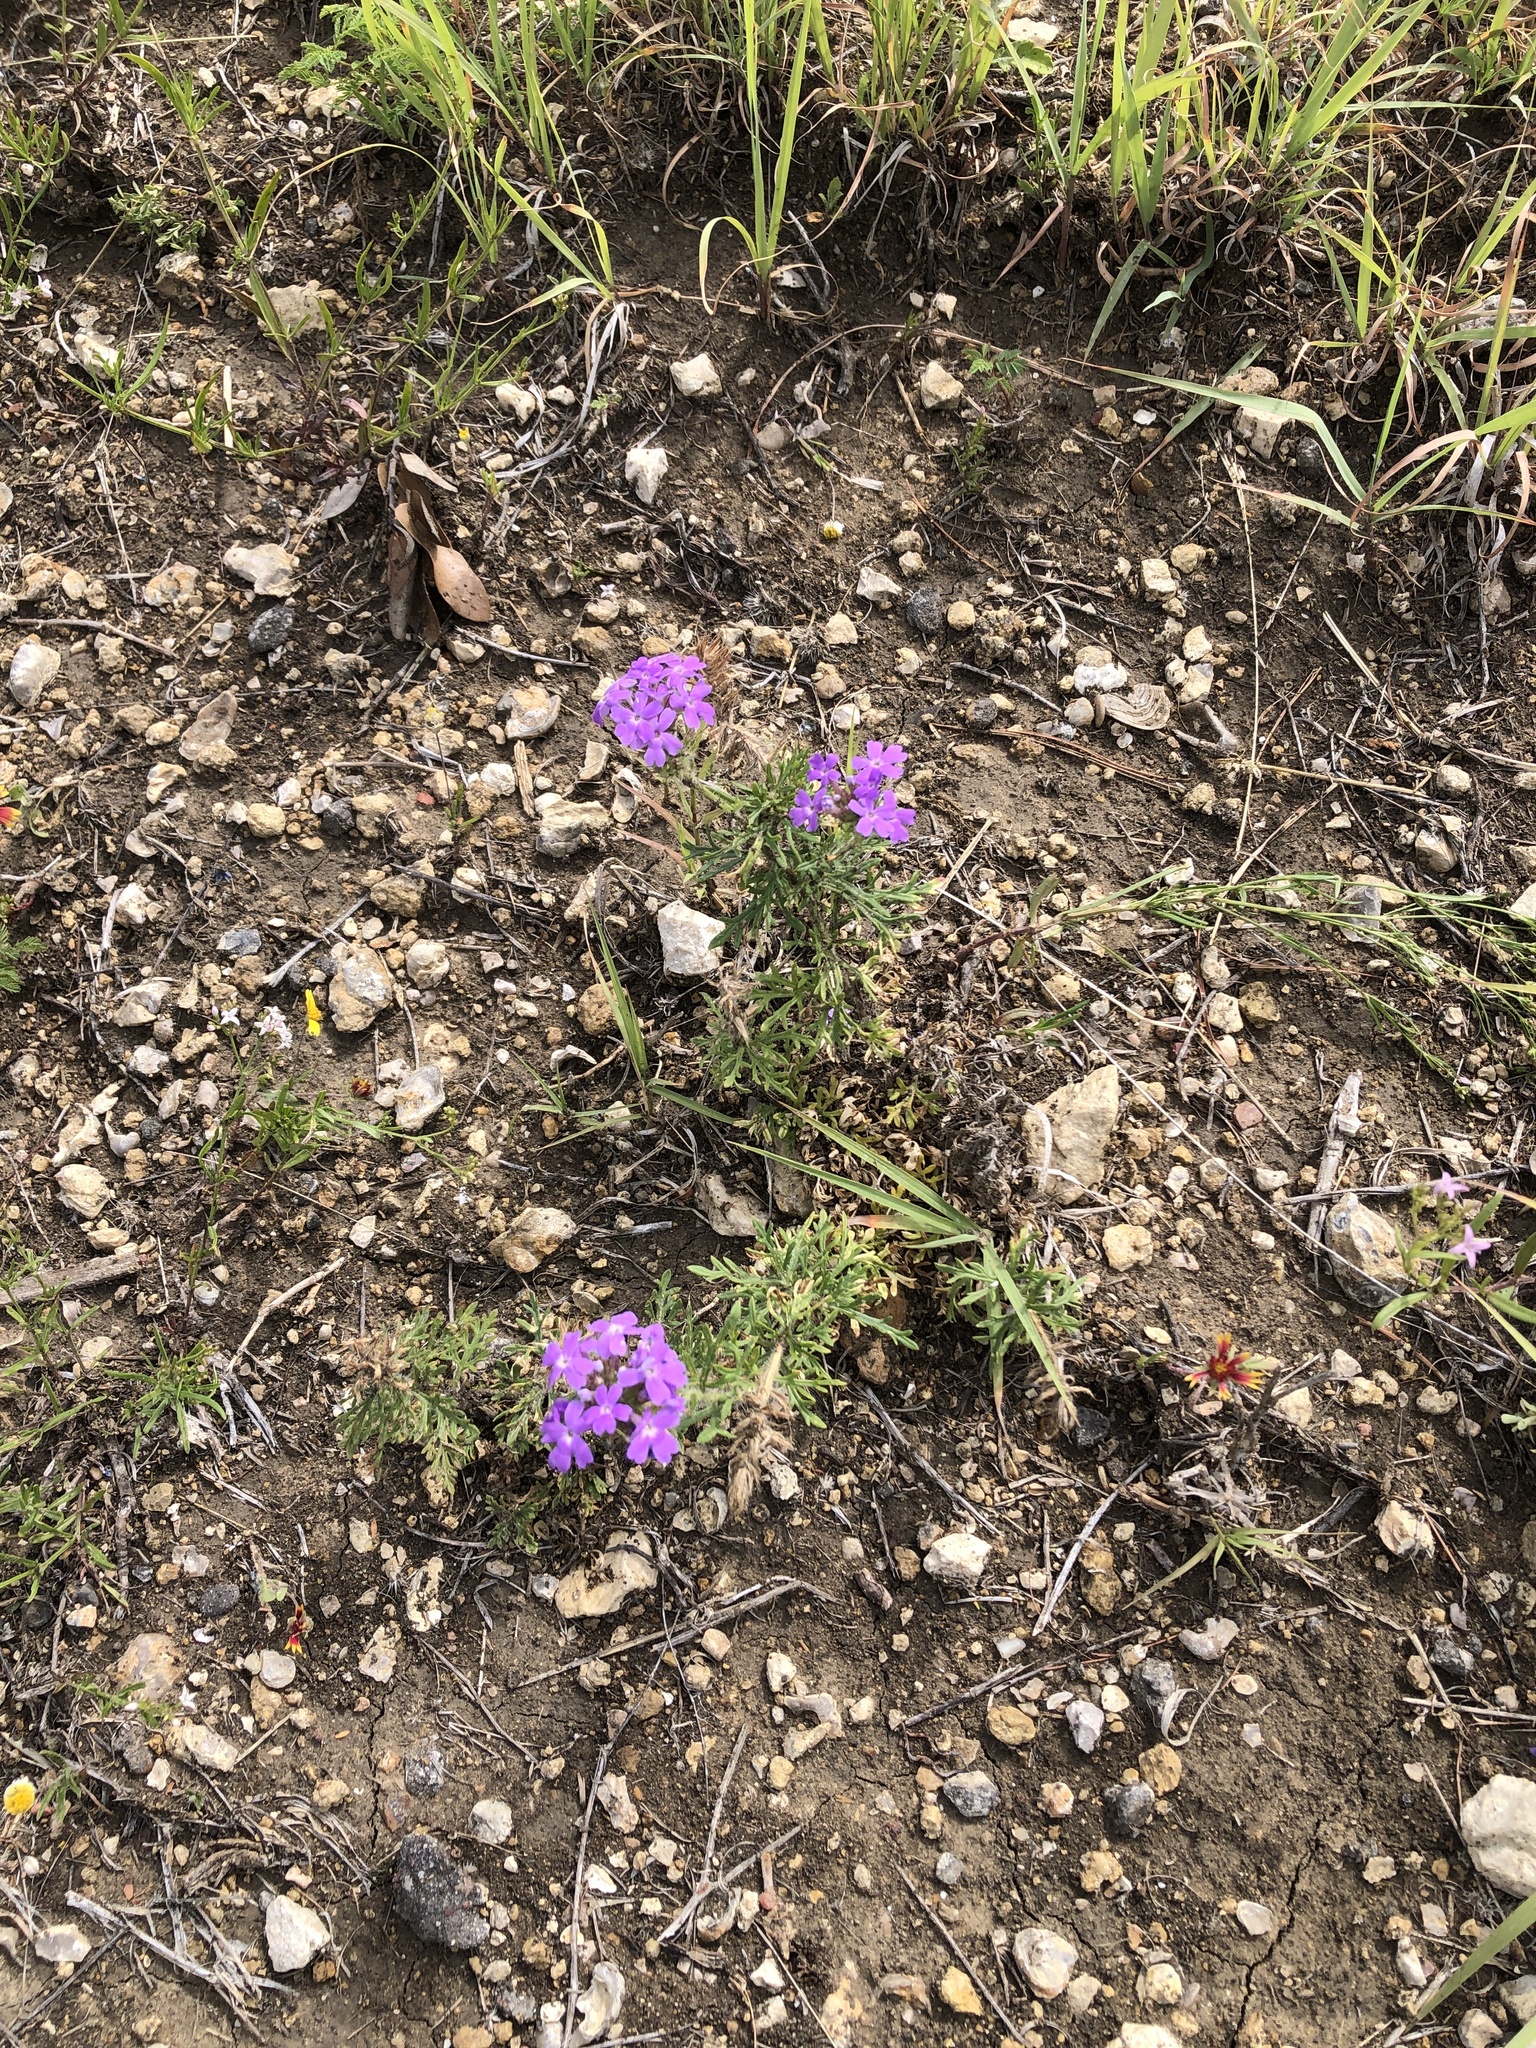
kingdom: Plantae
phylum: Tracheophyta
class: Magnoliopsida
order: Lamiales
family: Verbenaceae
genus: Verbena
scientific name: Verbena bipinnatifida
